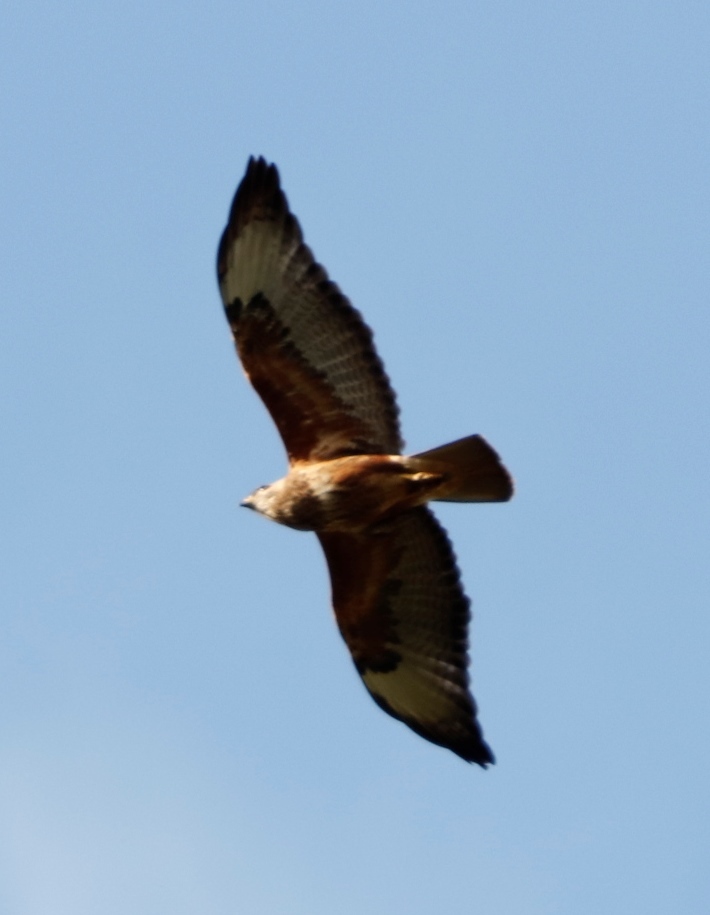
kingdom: Animalia
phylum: Chordata
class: Aves
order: Accipitriformes
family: Accipitridae
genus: Buteo
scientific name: Buteo buteo
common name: Common buzzard
